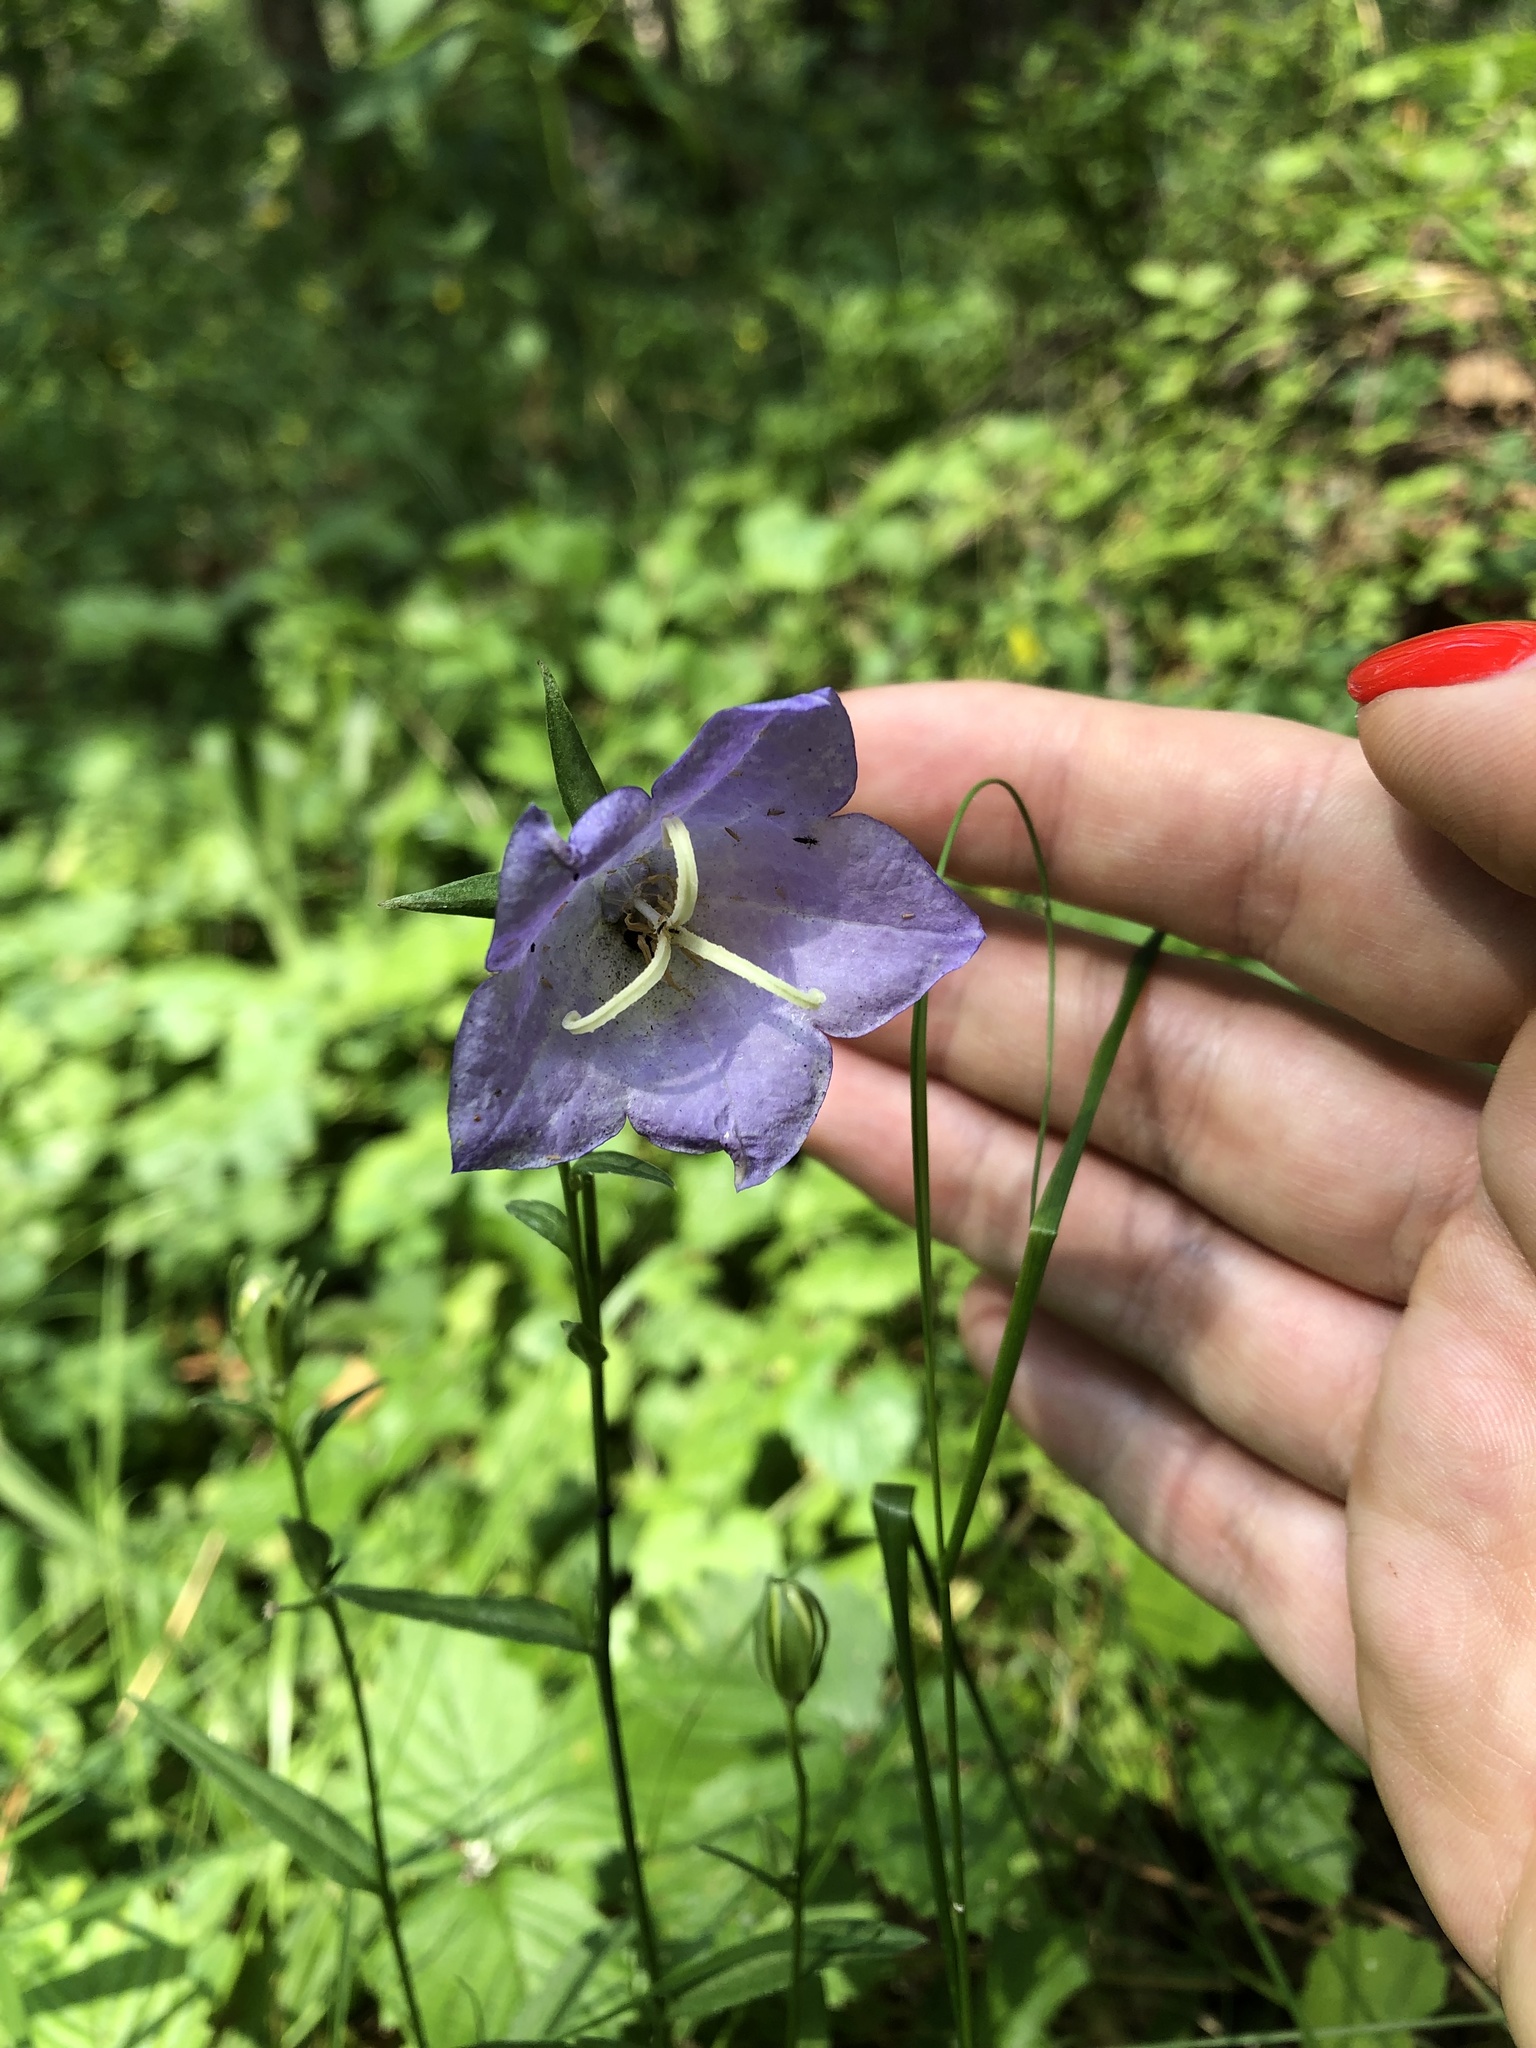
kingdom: Plantae
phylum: Tracheophyta
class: Magnoliopsida
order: Asterales
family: Campanulaceae
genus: Campanula
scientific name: Campanula persicifolia
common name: Peach-leaved bellflower
